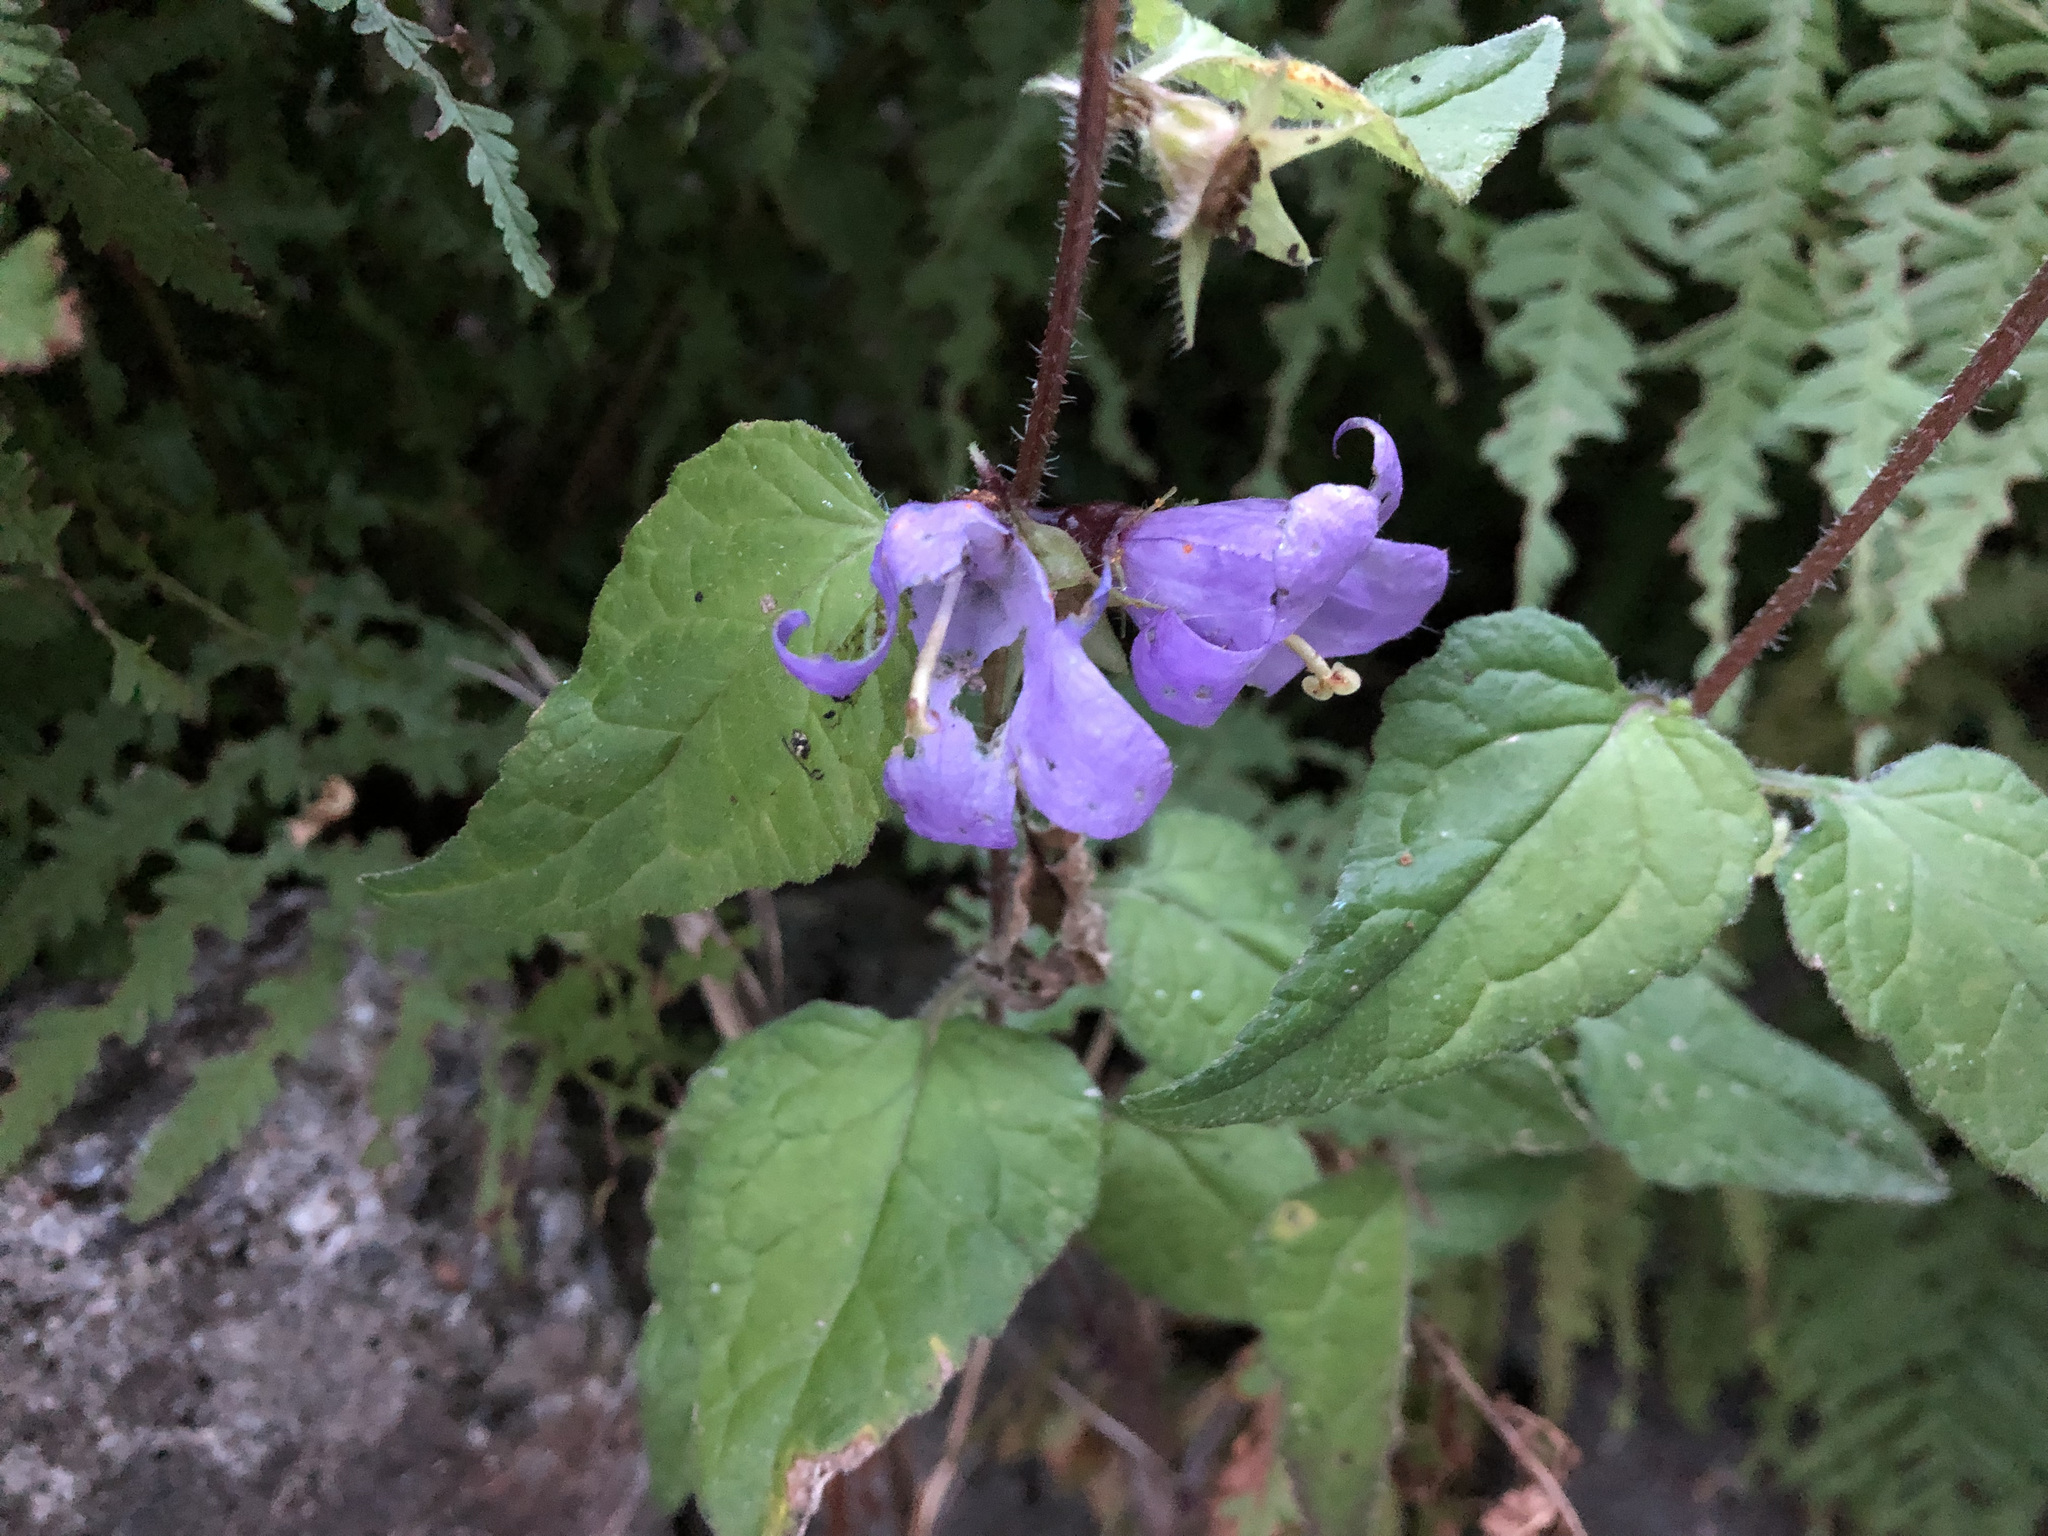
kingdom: Plantae
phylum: Tracheophyta
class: Magnoliopsida
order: Asterales
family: Campanulaceae
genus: Campanula
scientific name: Campanula trachelium
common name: Nettle-leaved bellflower
